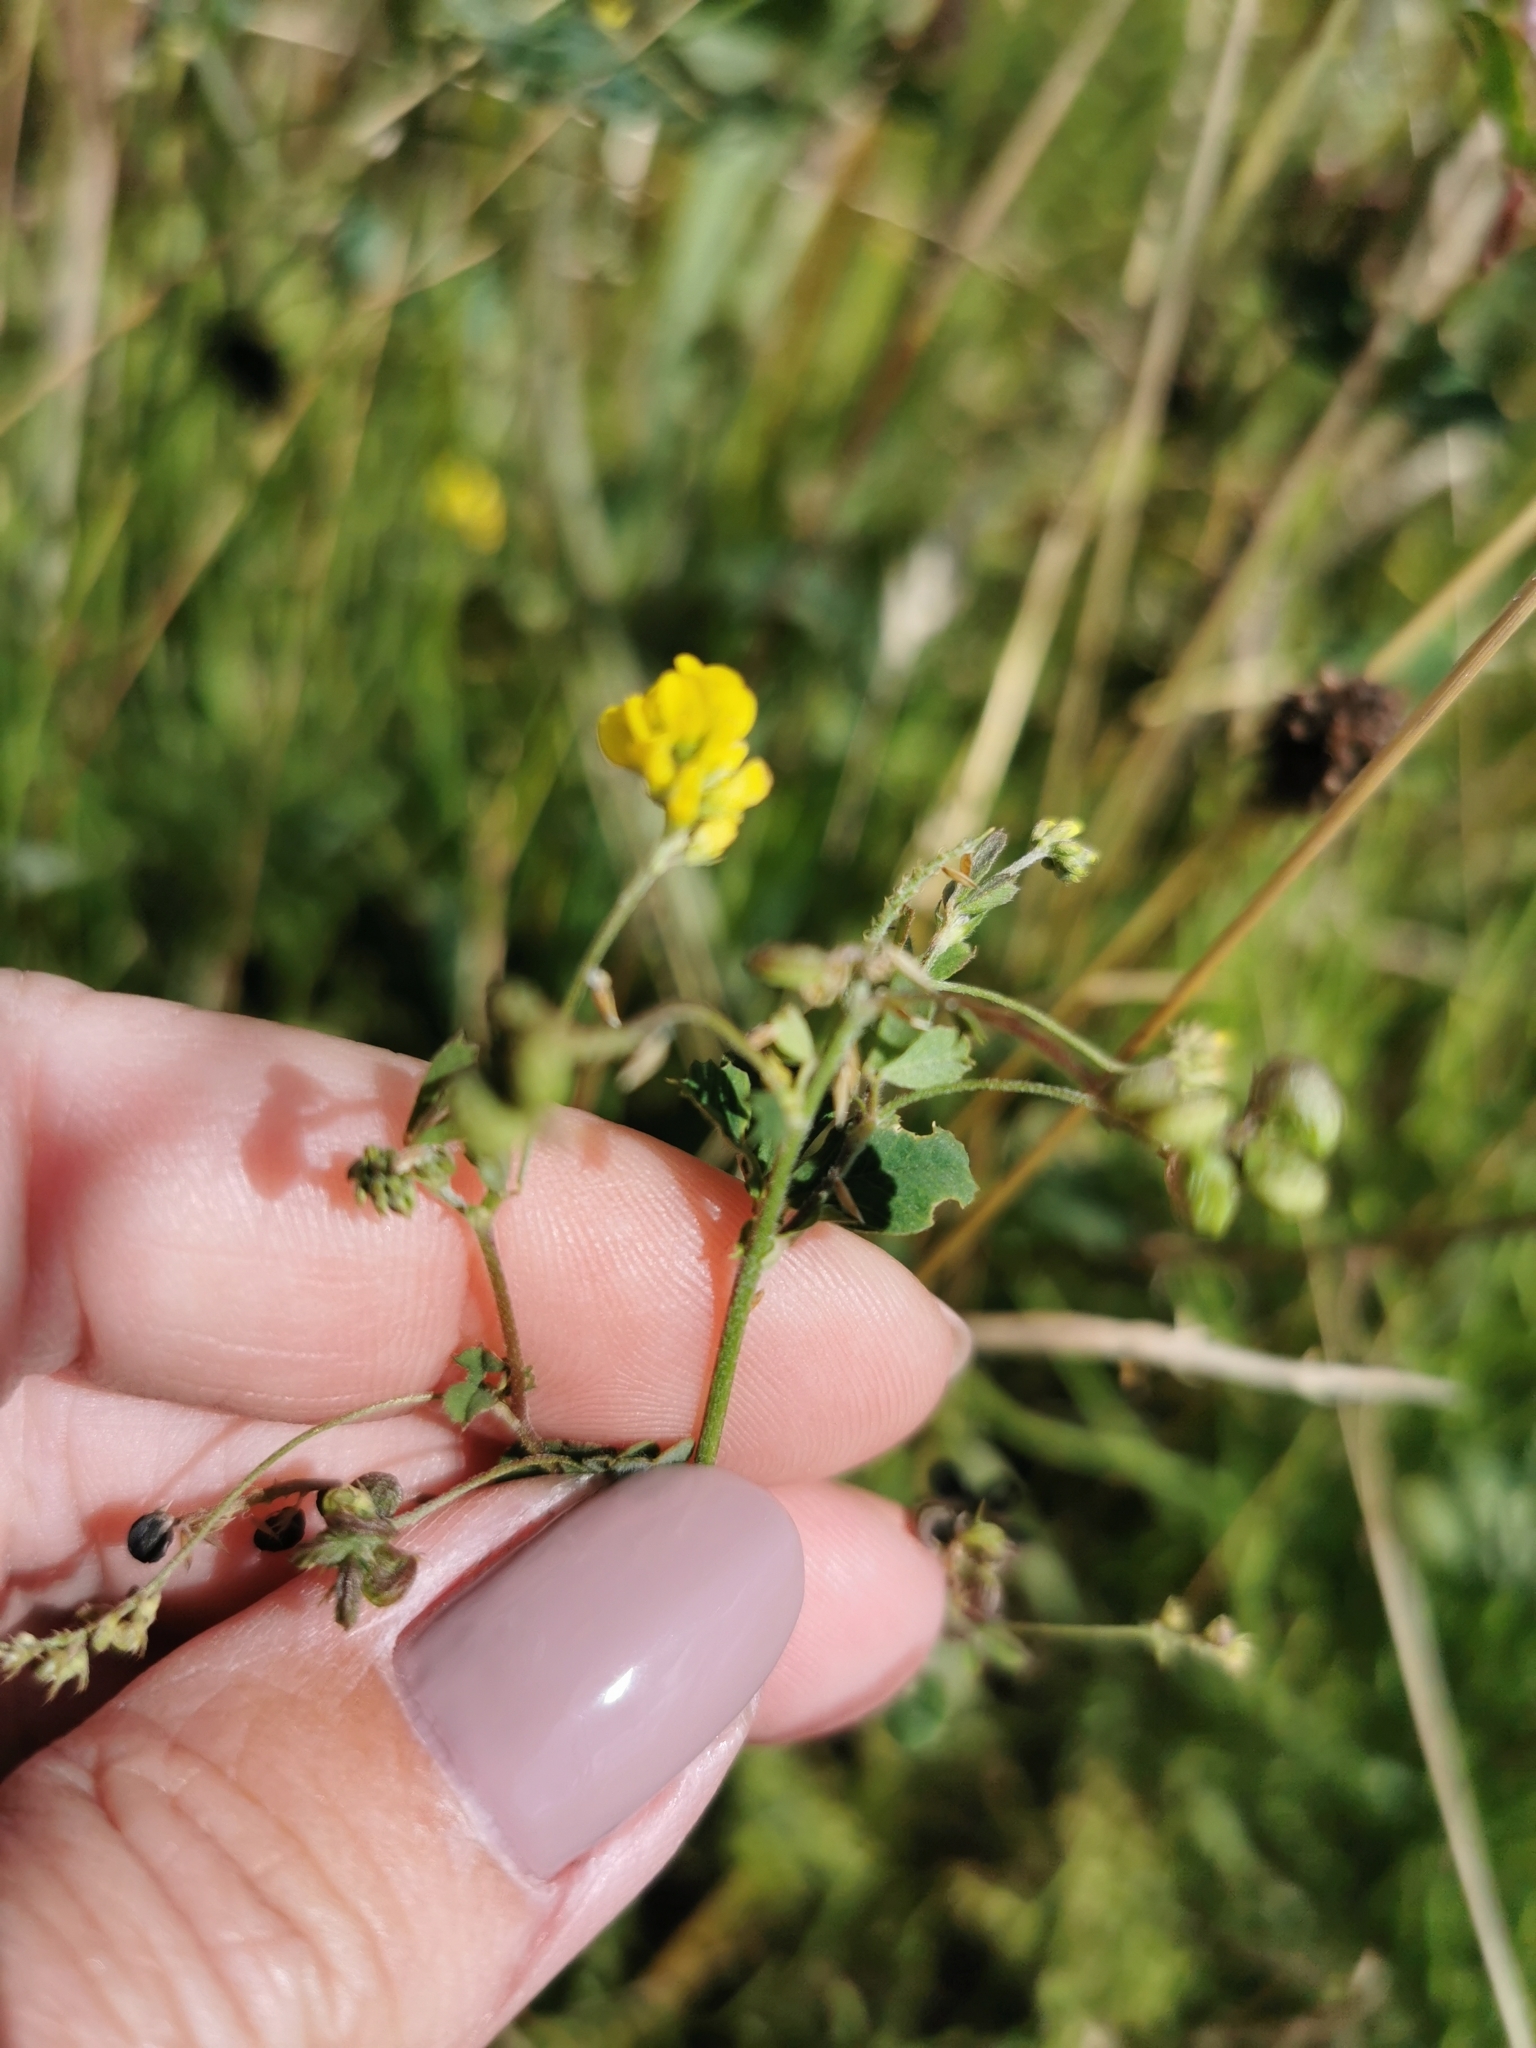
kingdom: Plantae
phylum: Tracheophyta
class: Magnoliopsida
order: Fabales
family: Fabaceae
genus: Medicago
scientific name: Medicago lupulina
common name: Black medick
